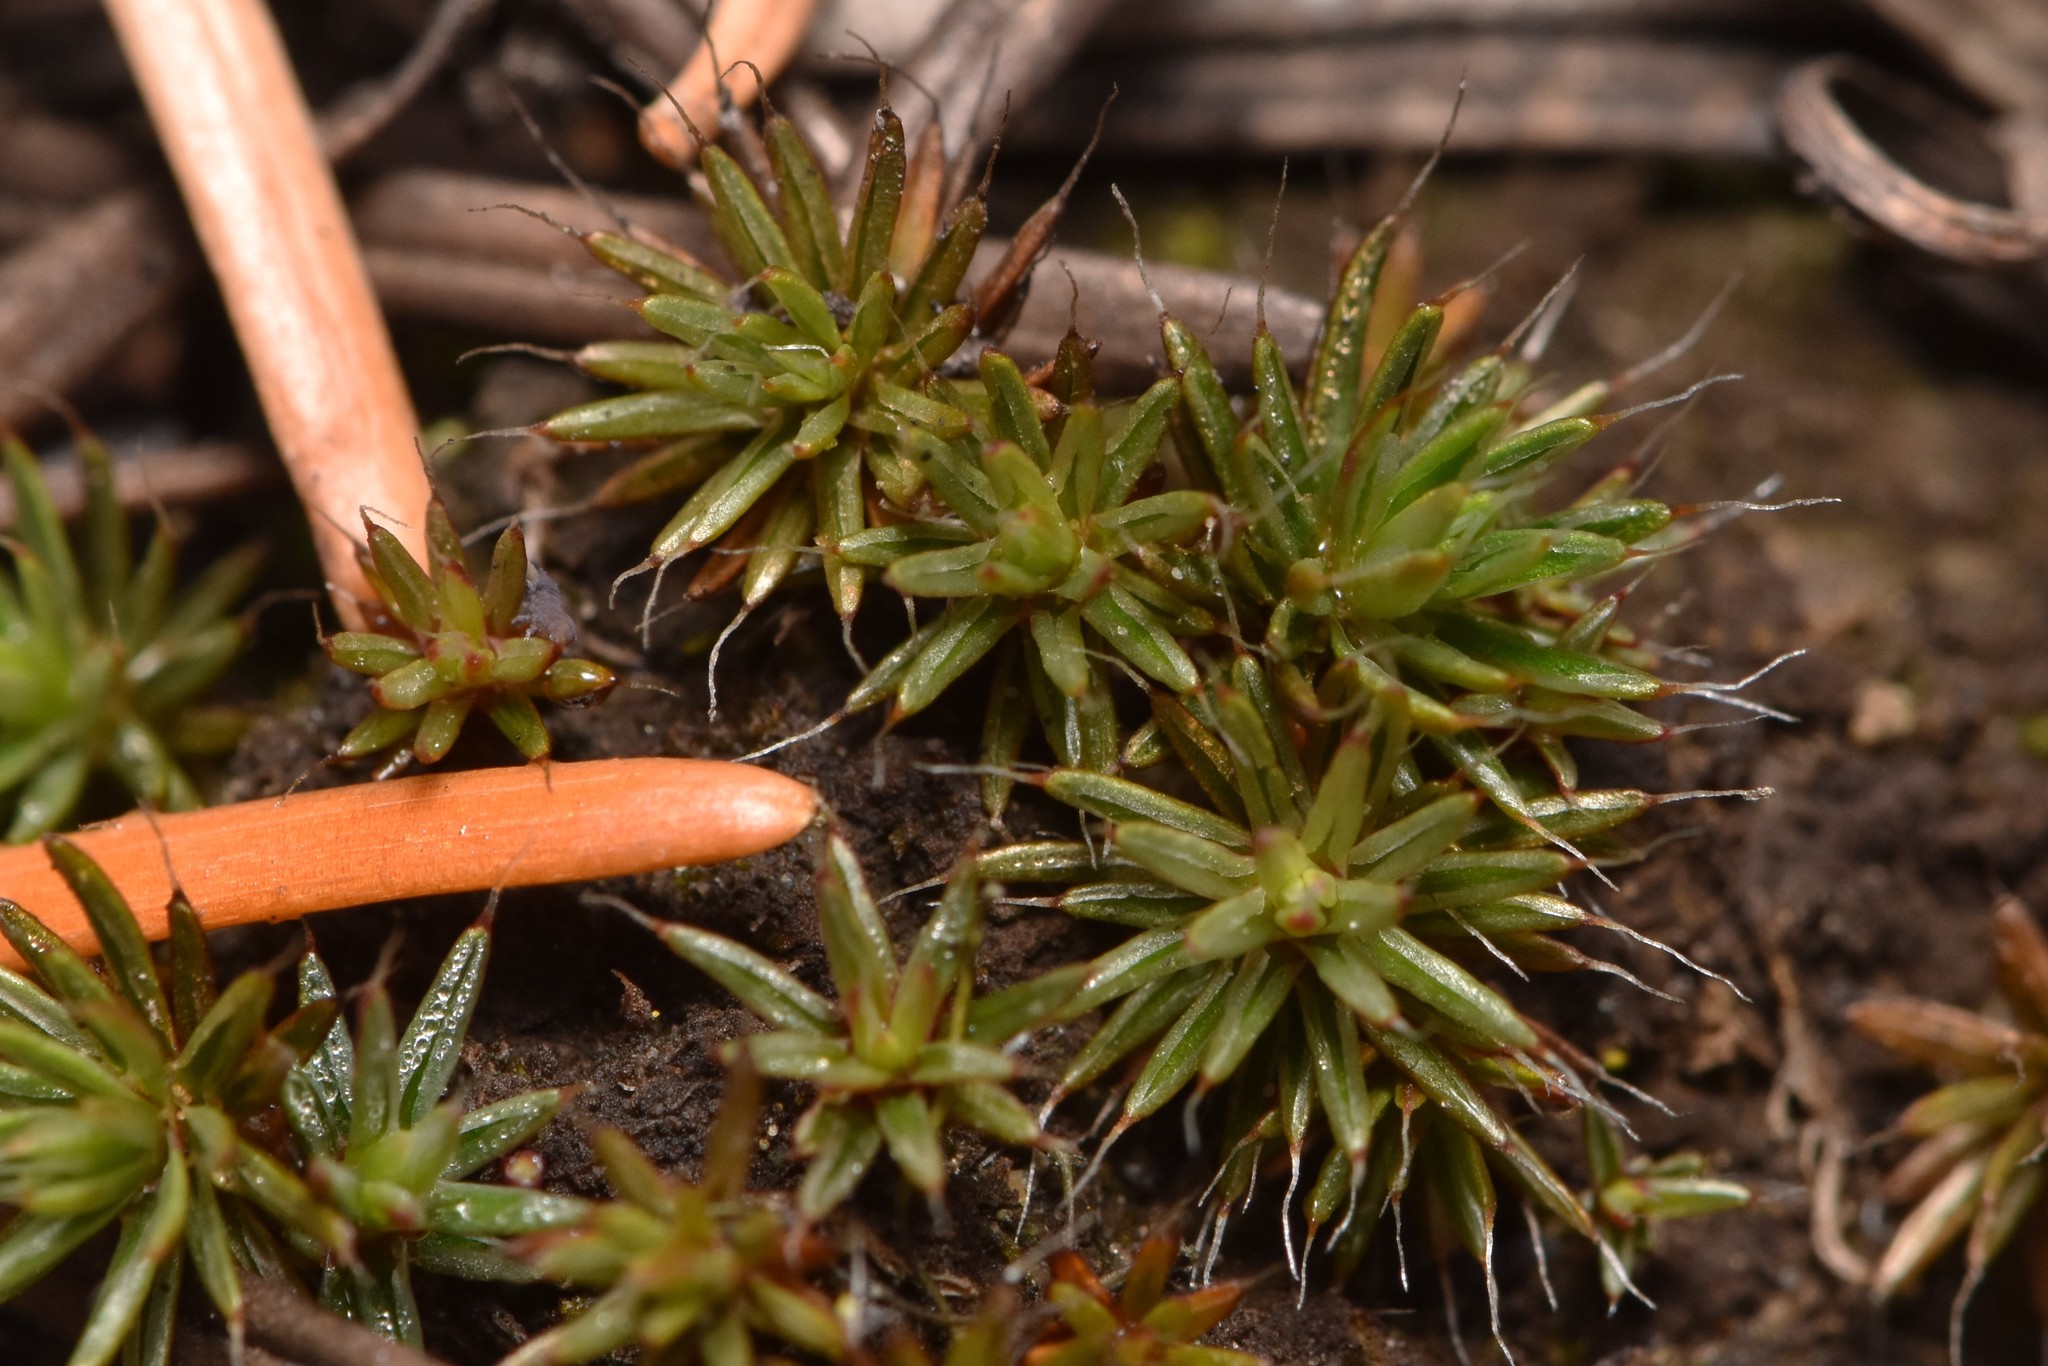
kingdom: Plantae
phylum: Bryophyta
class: Polytrichopsida
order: Polytrichales
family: Polytrichaceae
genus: Polytrichum
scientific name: Polytrichum piliferum
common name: Bristly haircap
